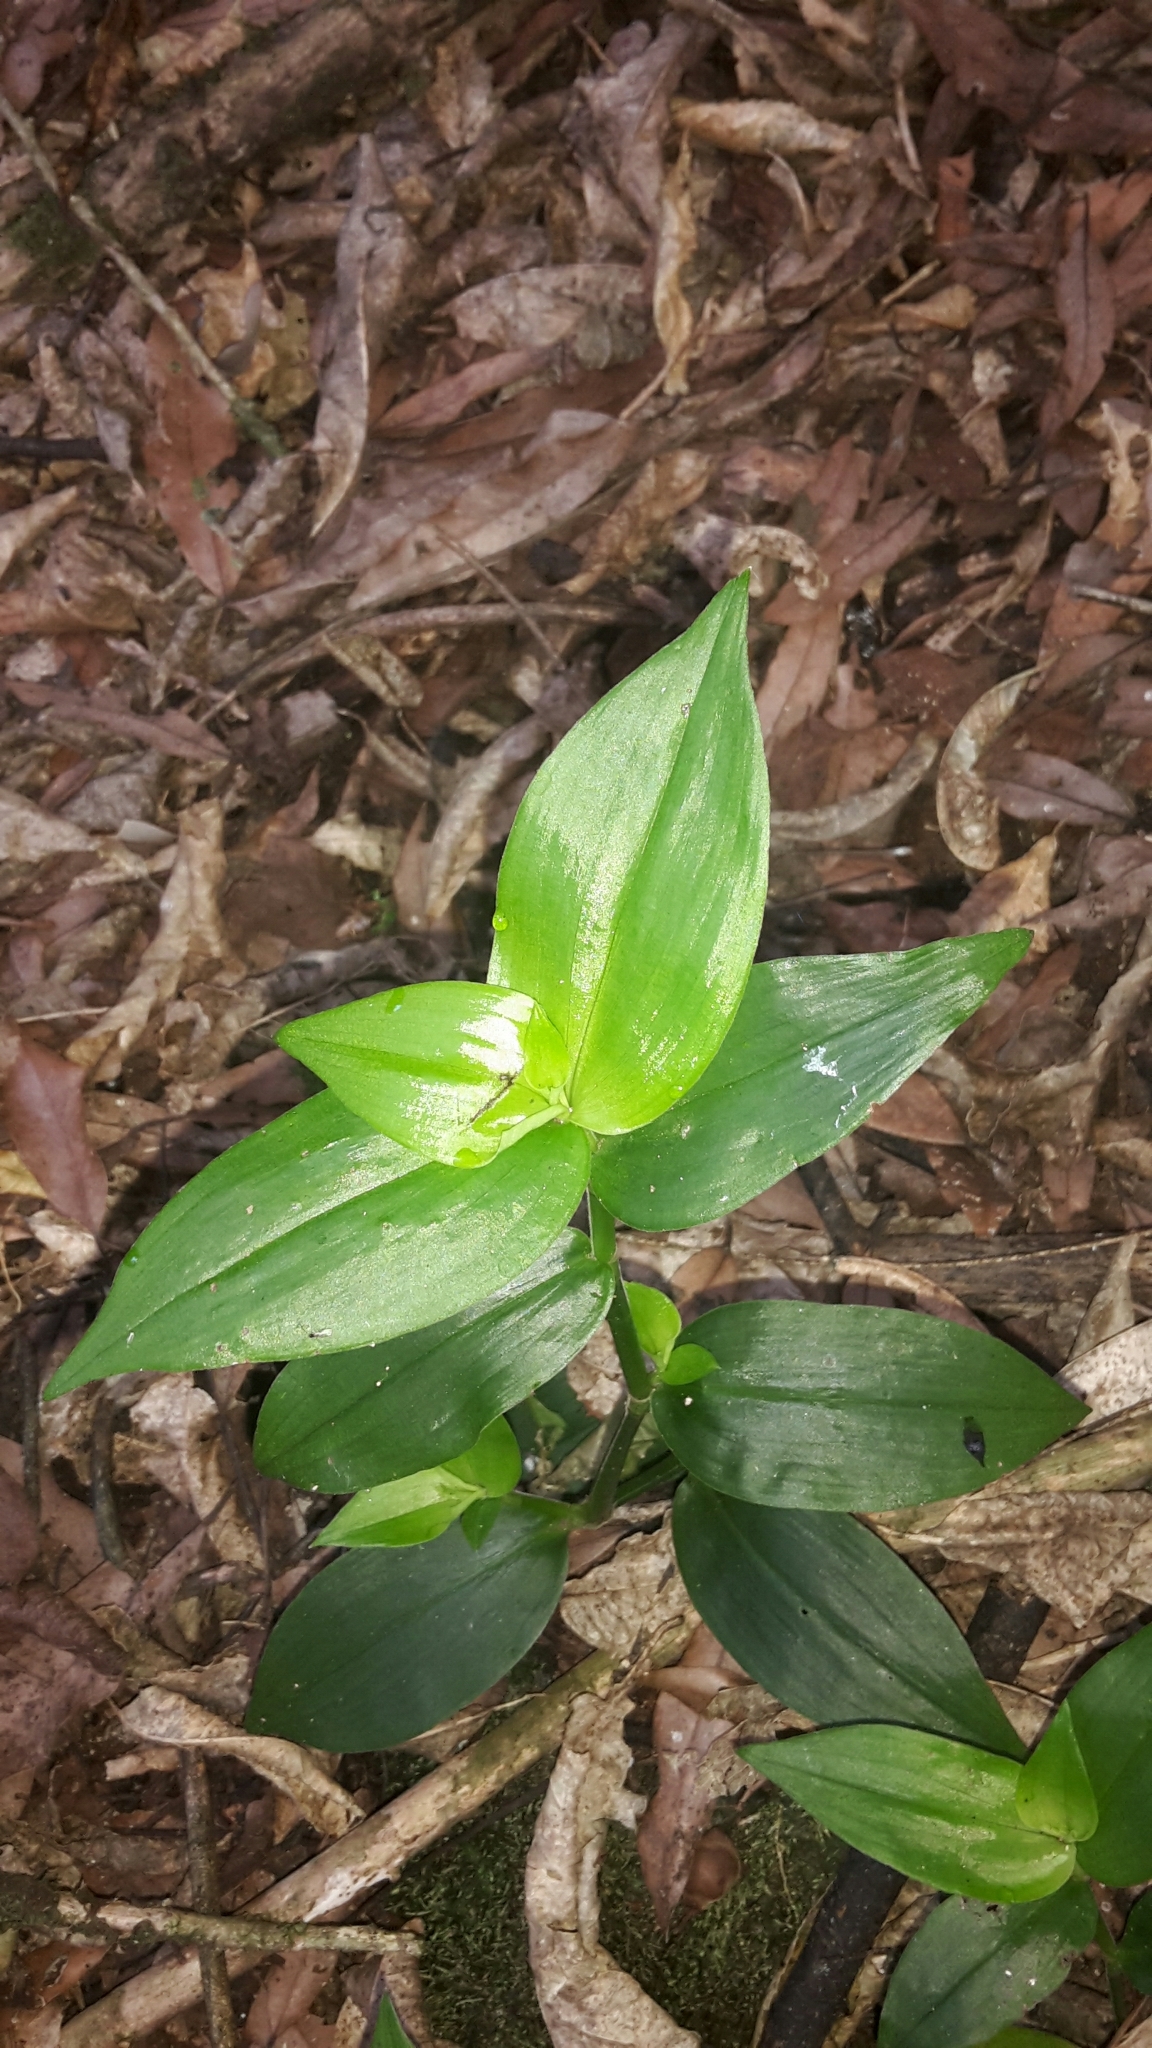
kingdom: Plantae
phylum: Tracheophyta
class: Liliopsida
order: Commelinales
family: Commelinaceae
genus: Tradescantia
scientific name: Tradescantia fluminensis
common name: Wandering-jew
